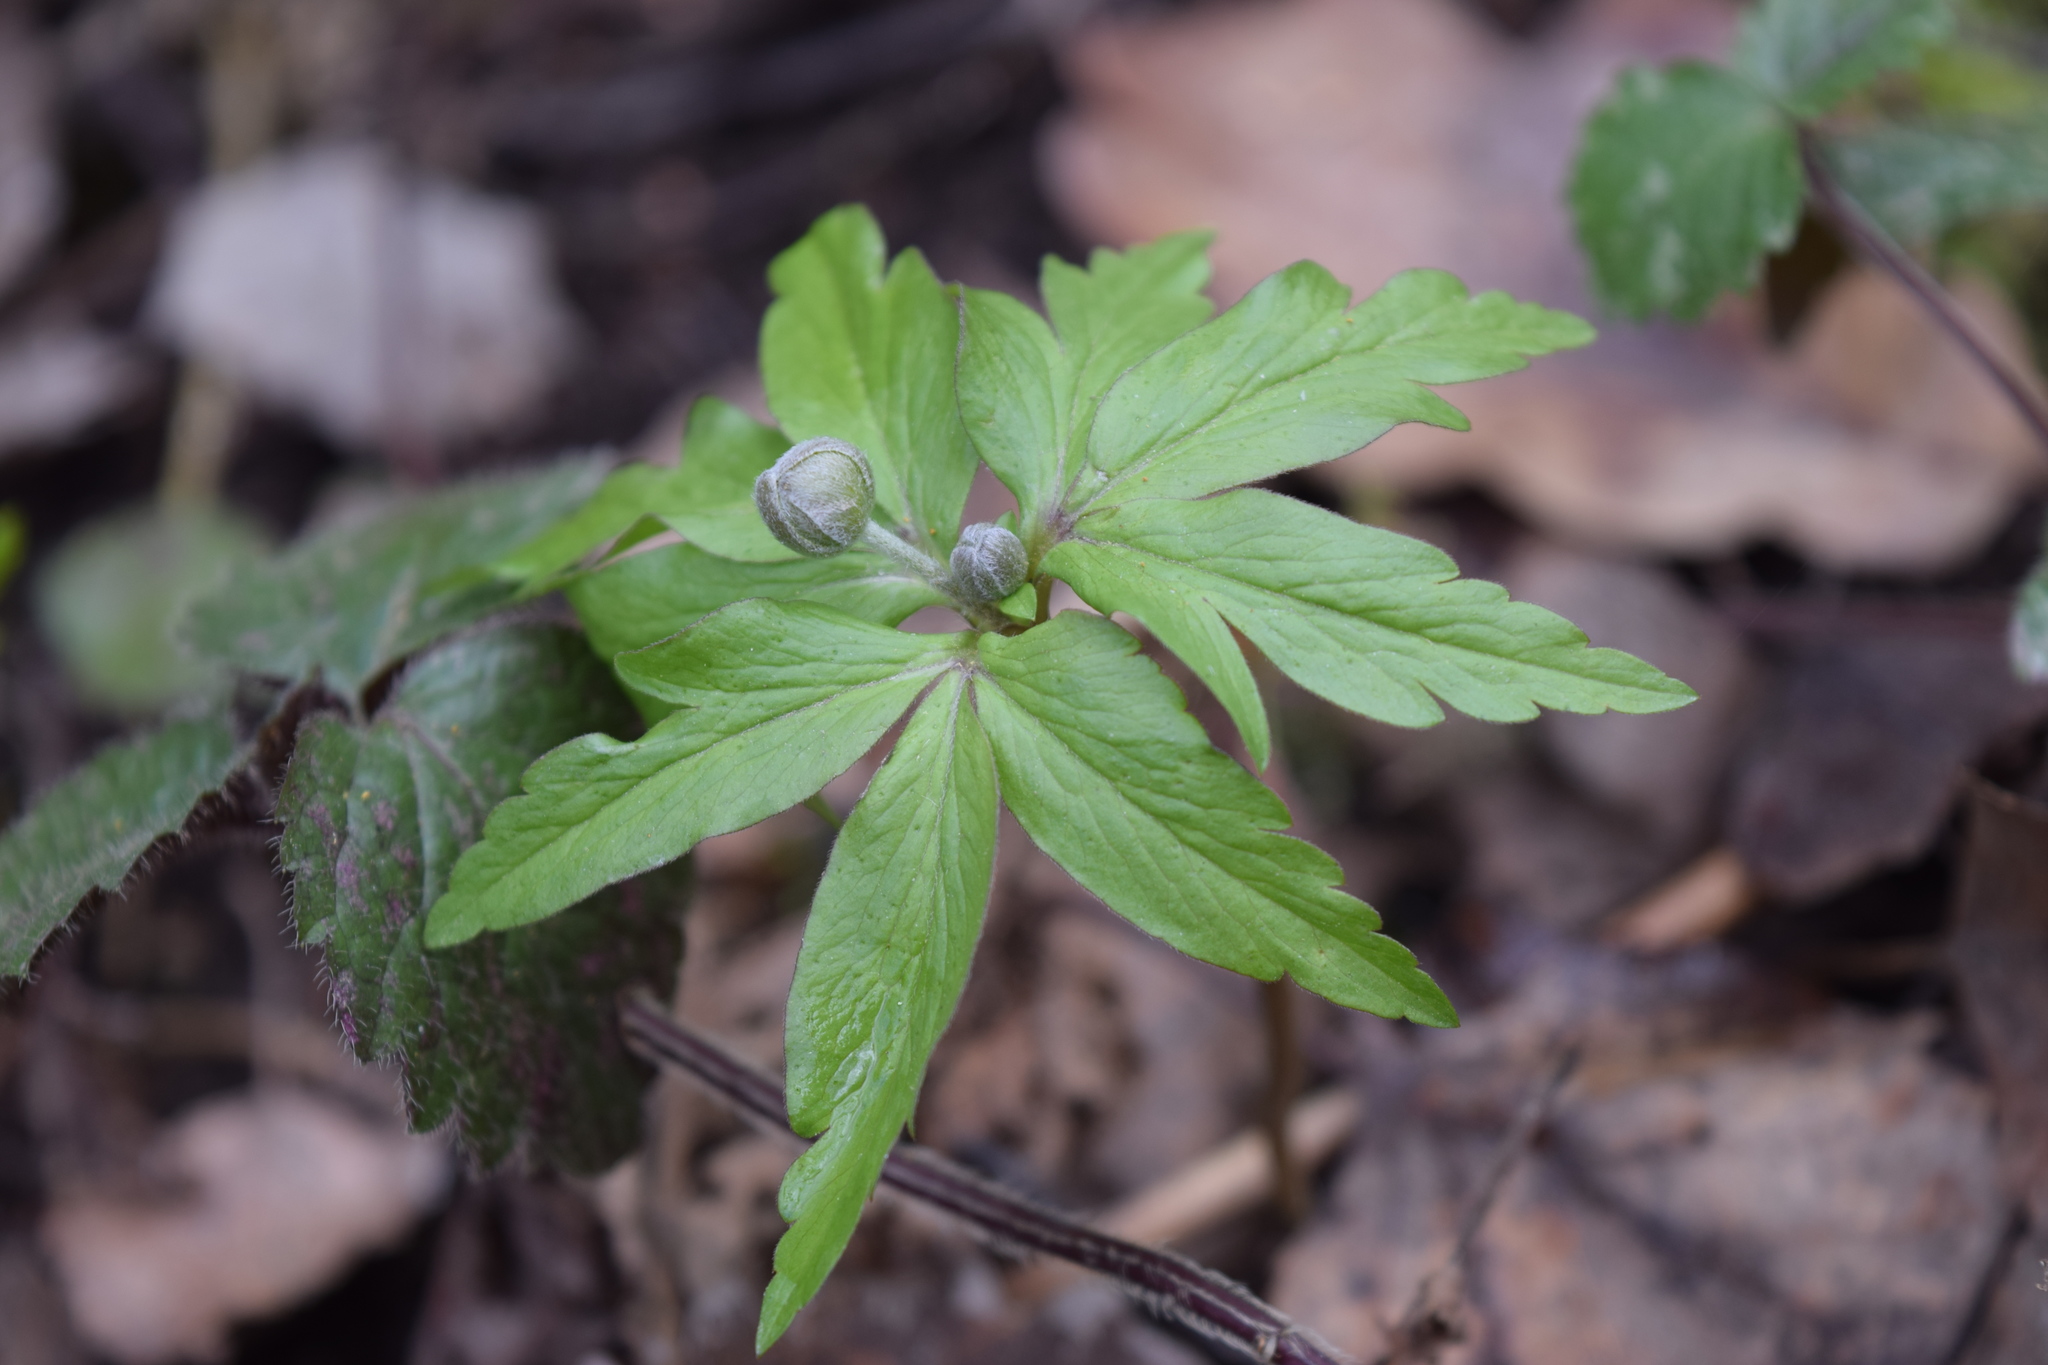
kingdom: Plantae
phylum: Tracheophyta
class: Magnoliopsida
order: Ranunculales
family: Ranunculaceae
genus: Anemone
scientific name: Anemone ranunculoides
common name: Yellow anemone
